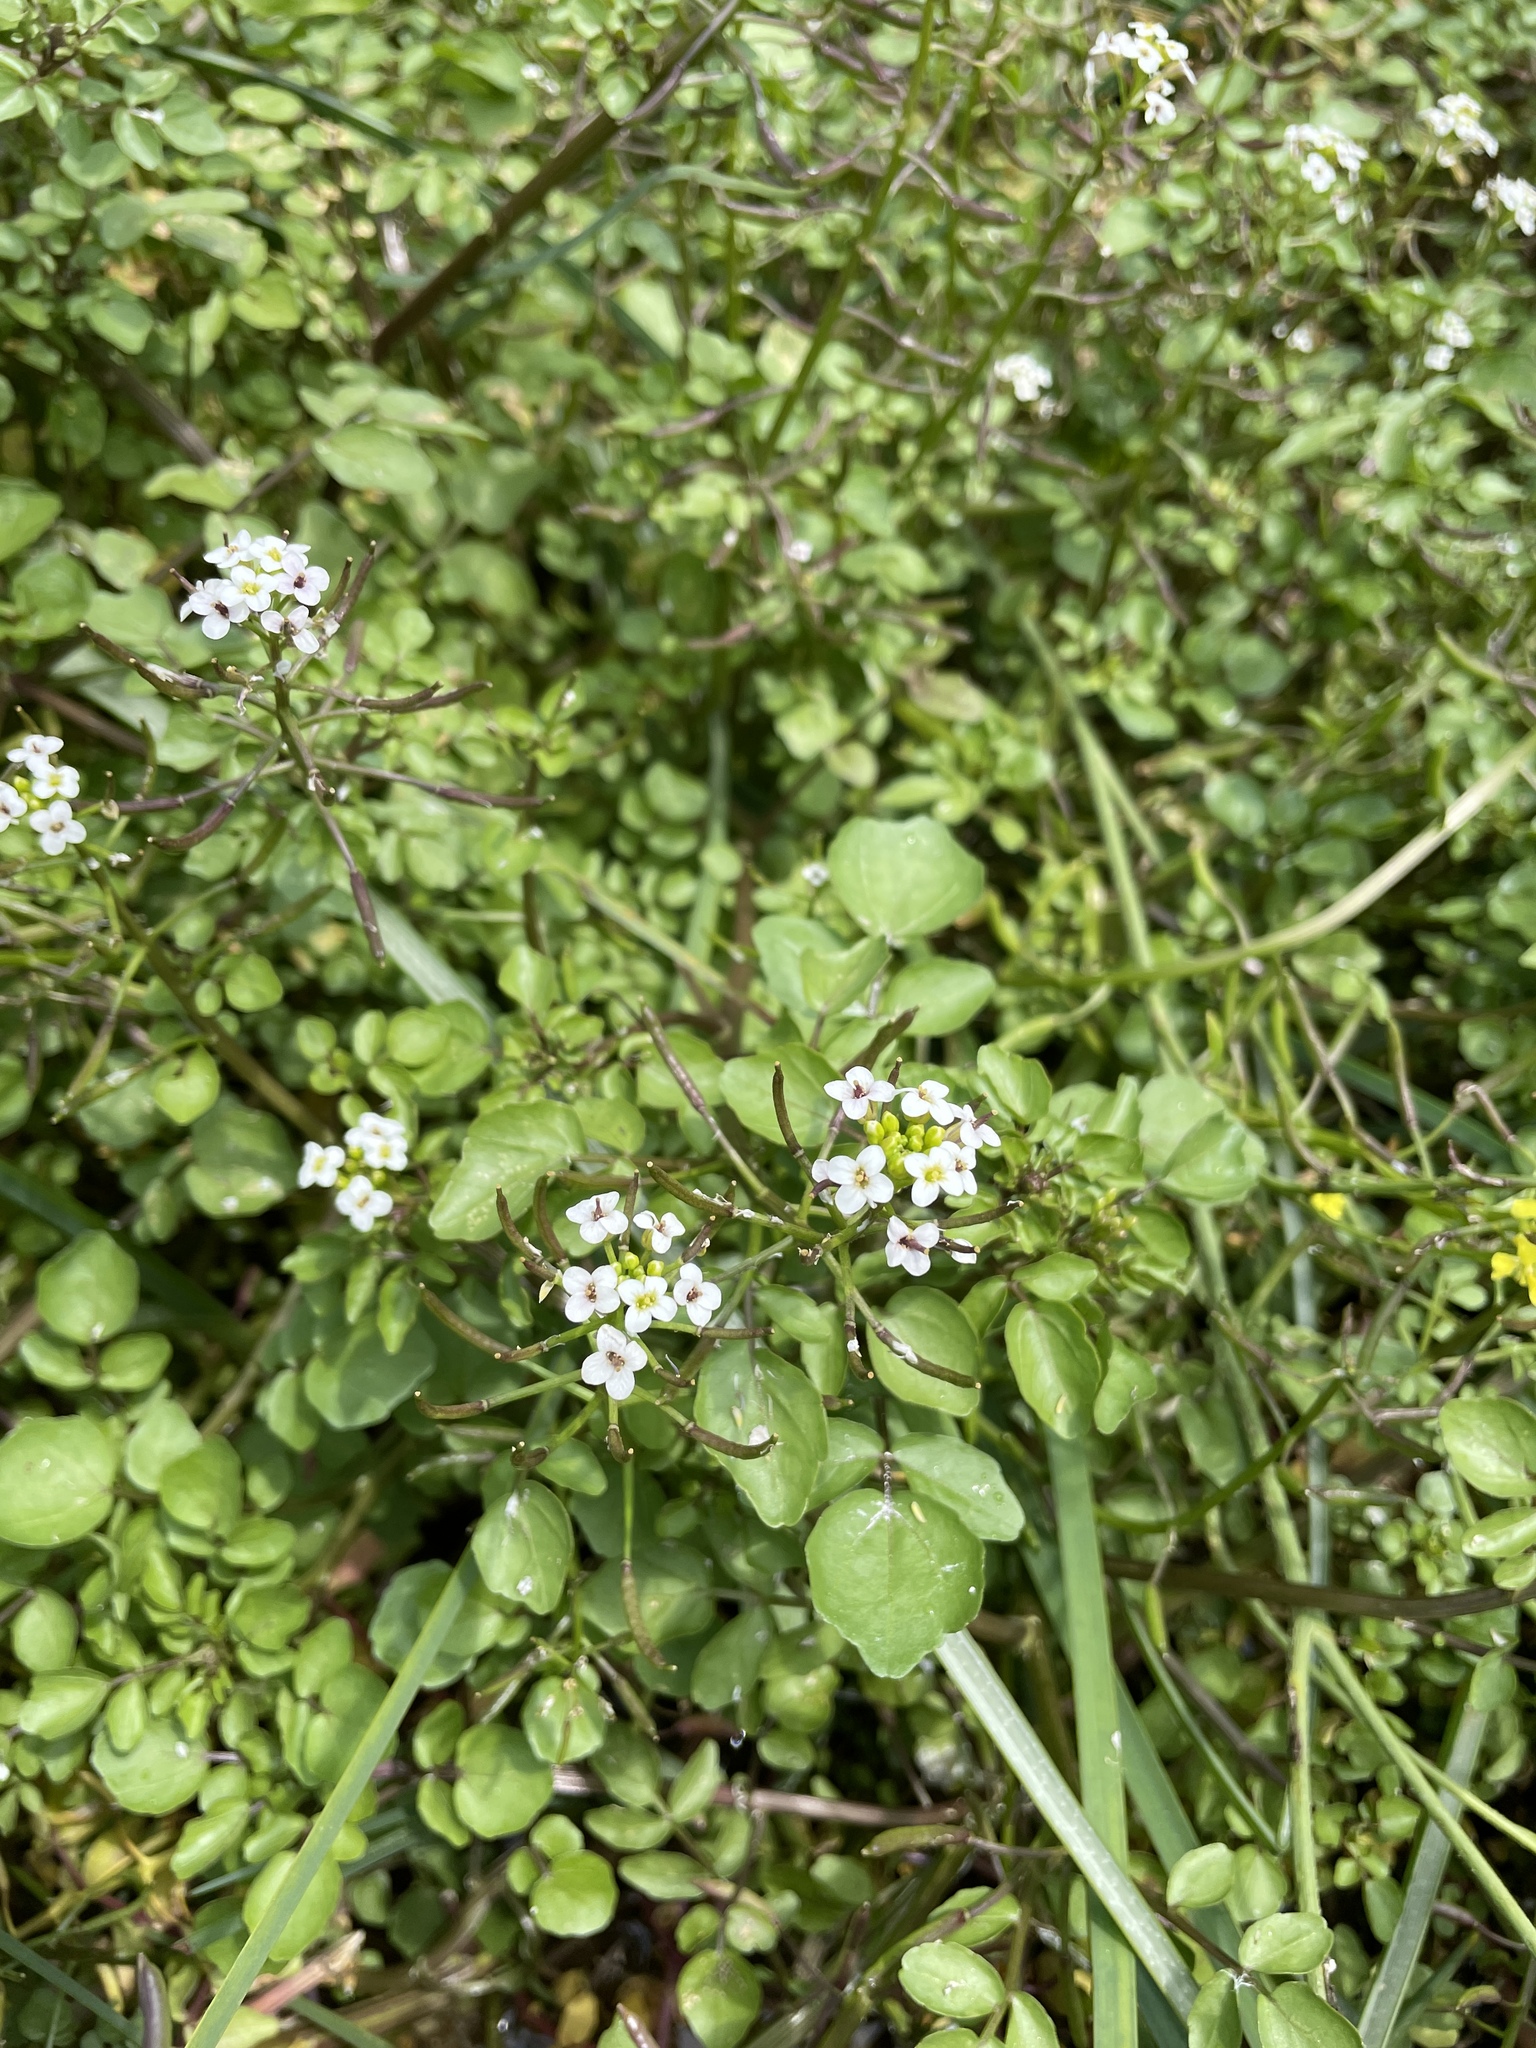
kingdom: Plantae
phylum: Tracheophyta
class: Magnoliopsida
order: Brassicales
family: Brassicaceae
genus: Nasturtium
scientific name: Nasturtium officinale
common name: Watercress
